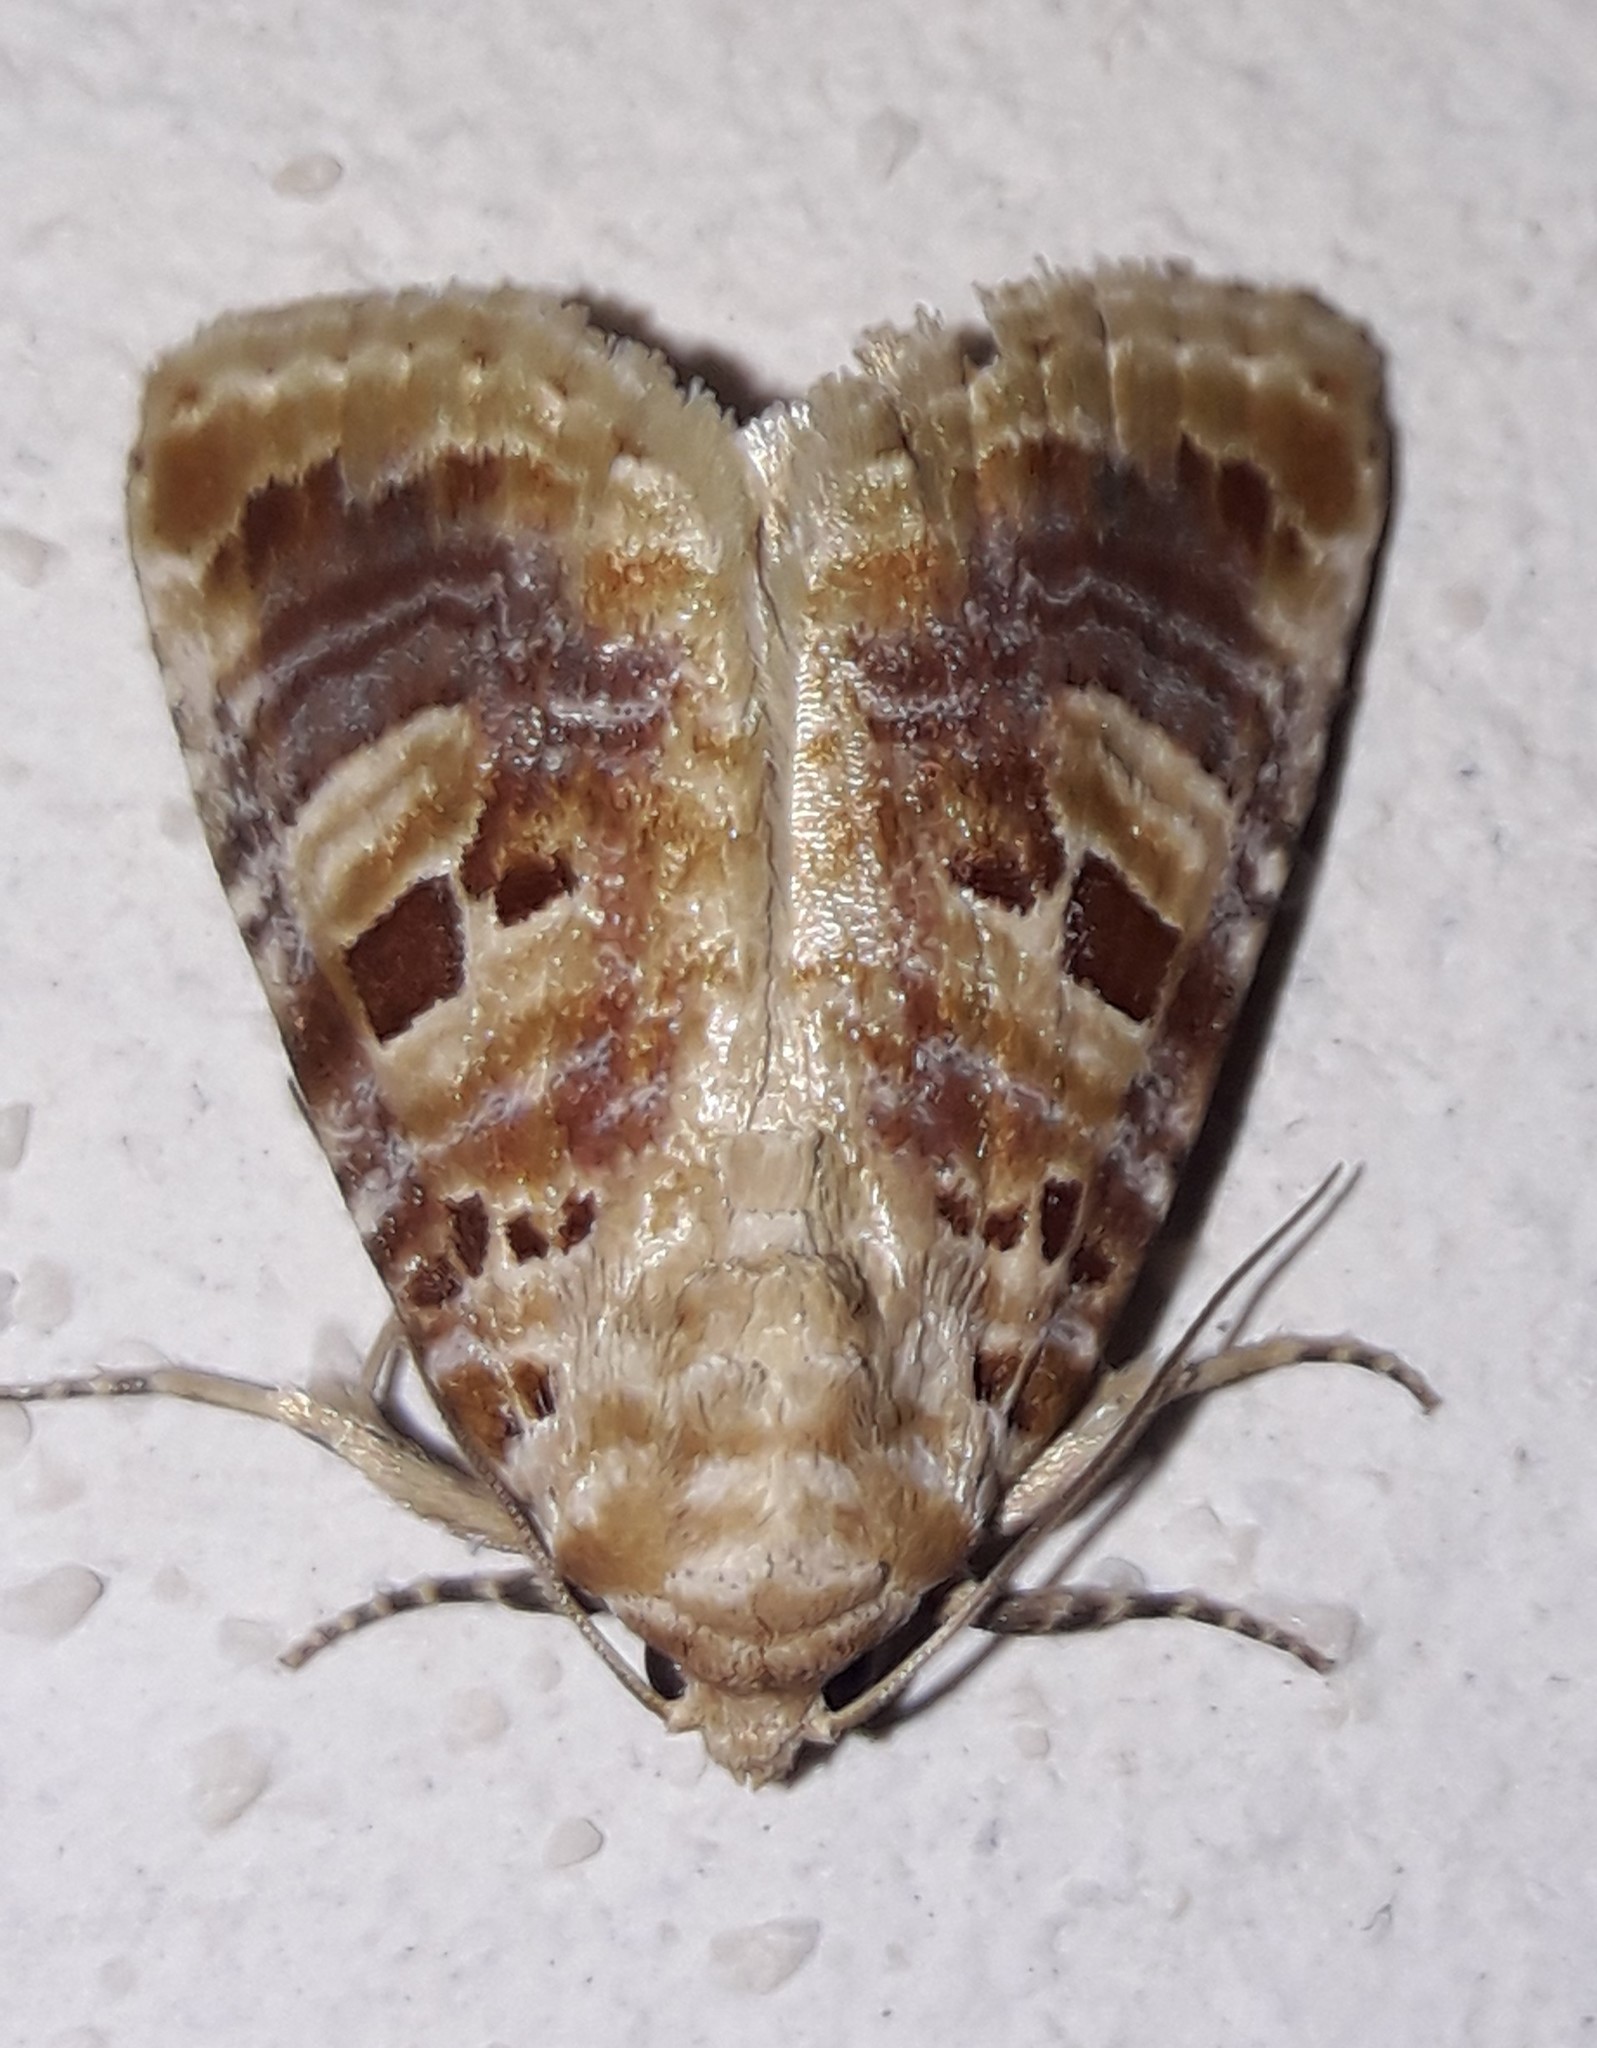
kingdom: Animalia
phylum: Arthropoda
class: Insecta
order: Lepidoptera
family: Noctuidae
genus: Diastema
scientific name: Diastema tigris
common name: Lantana moth
